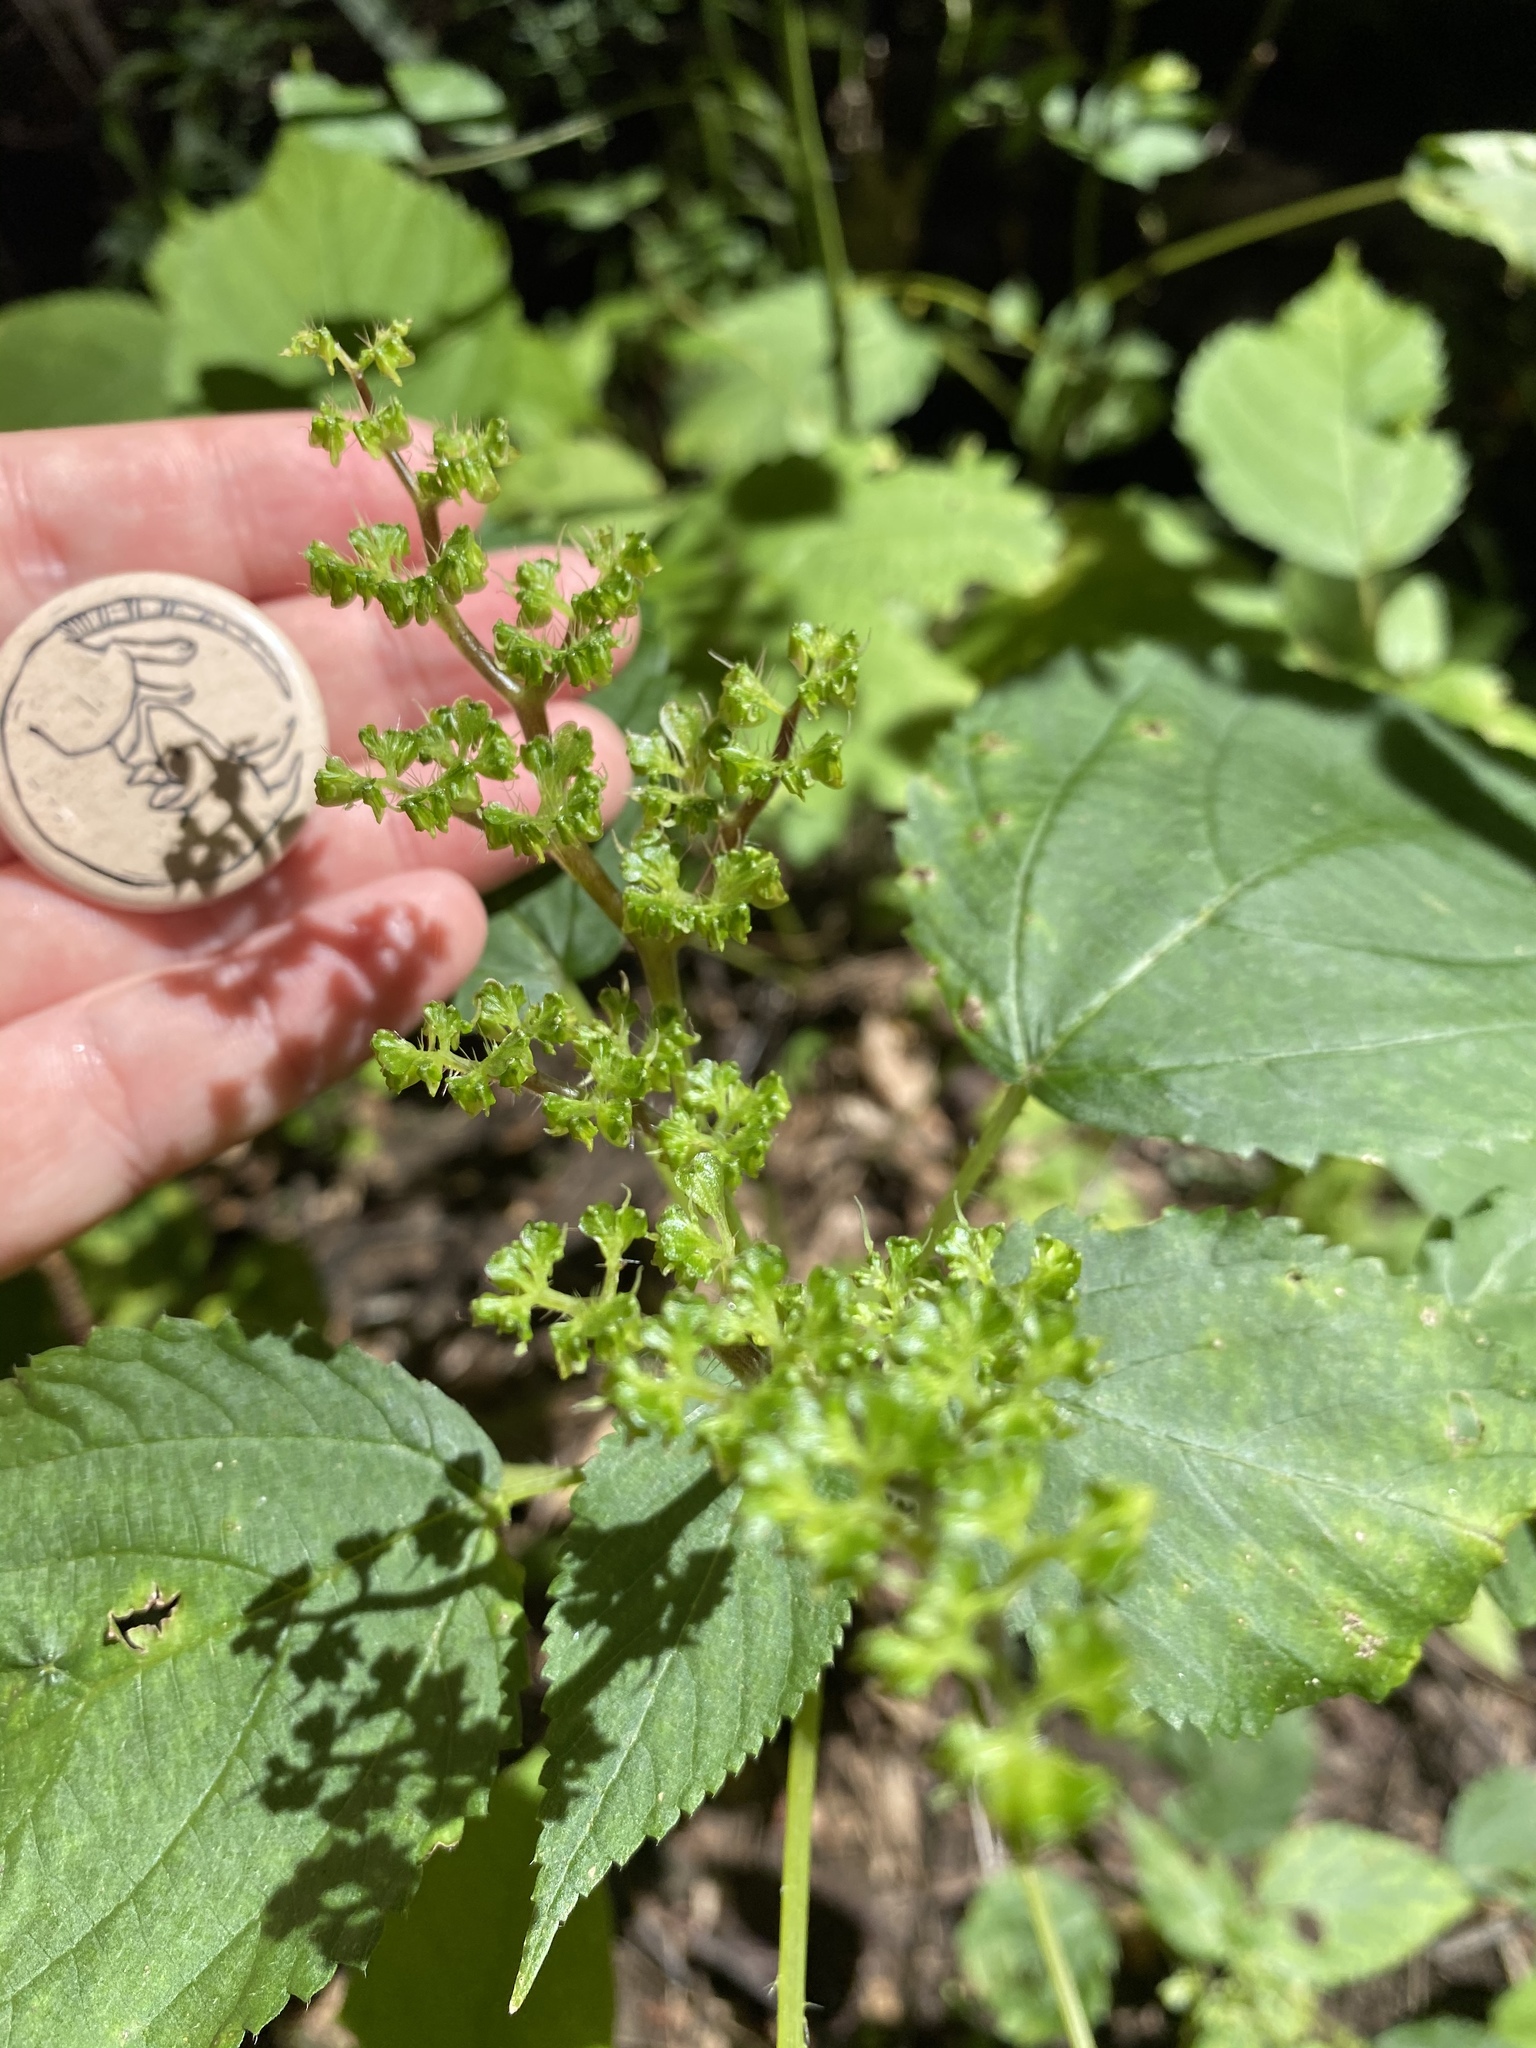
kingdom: Plantae
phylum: Tracheophyta
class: Magnoliopsida
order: Rosales
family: Urticaceae
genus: Laportea
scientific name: Laportea canadensis
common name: Canada nettle
